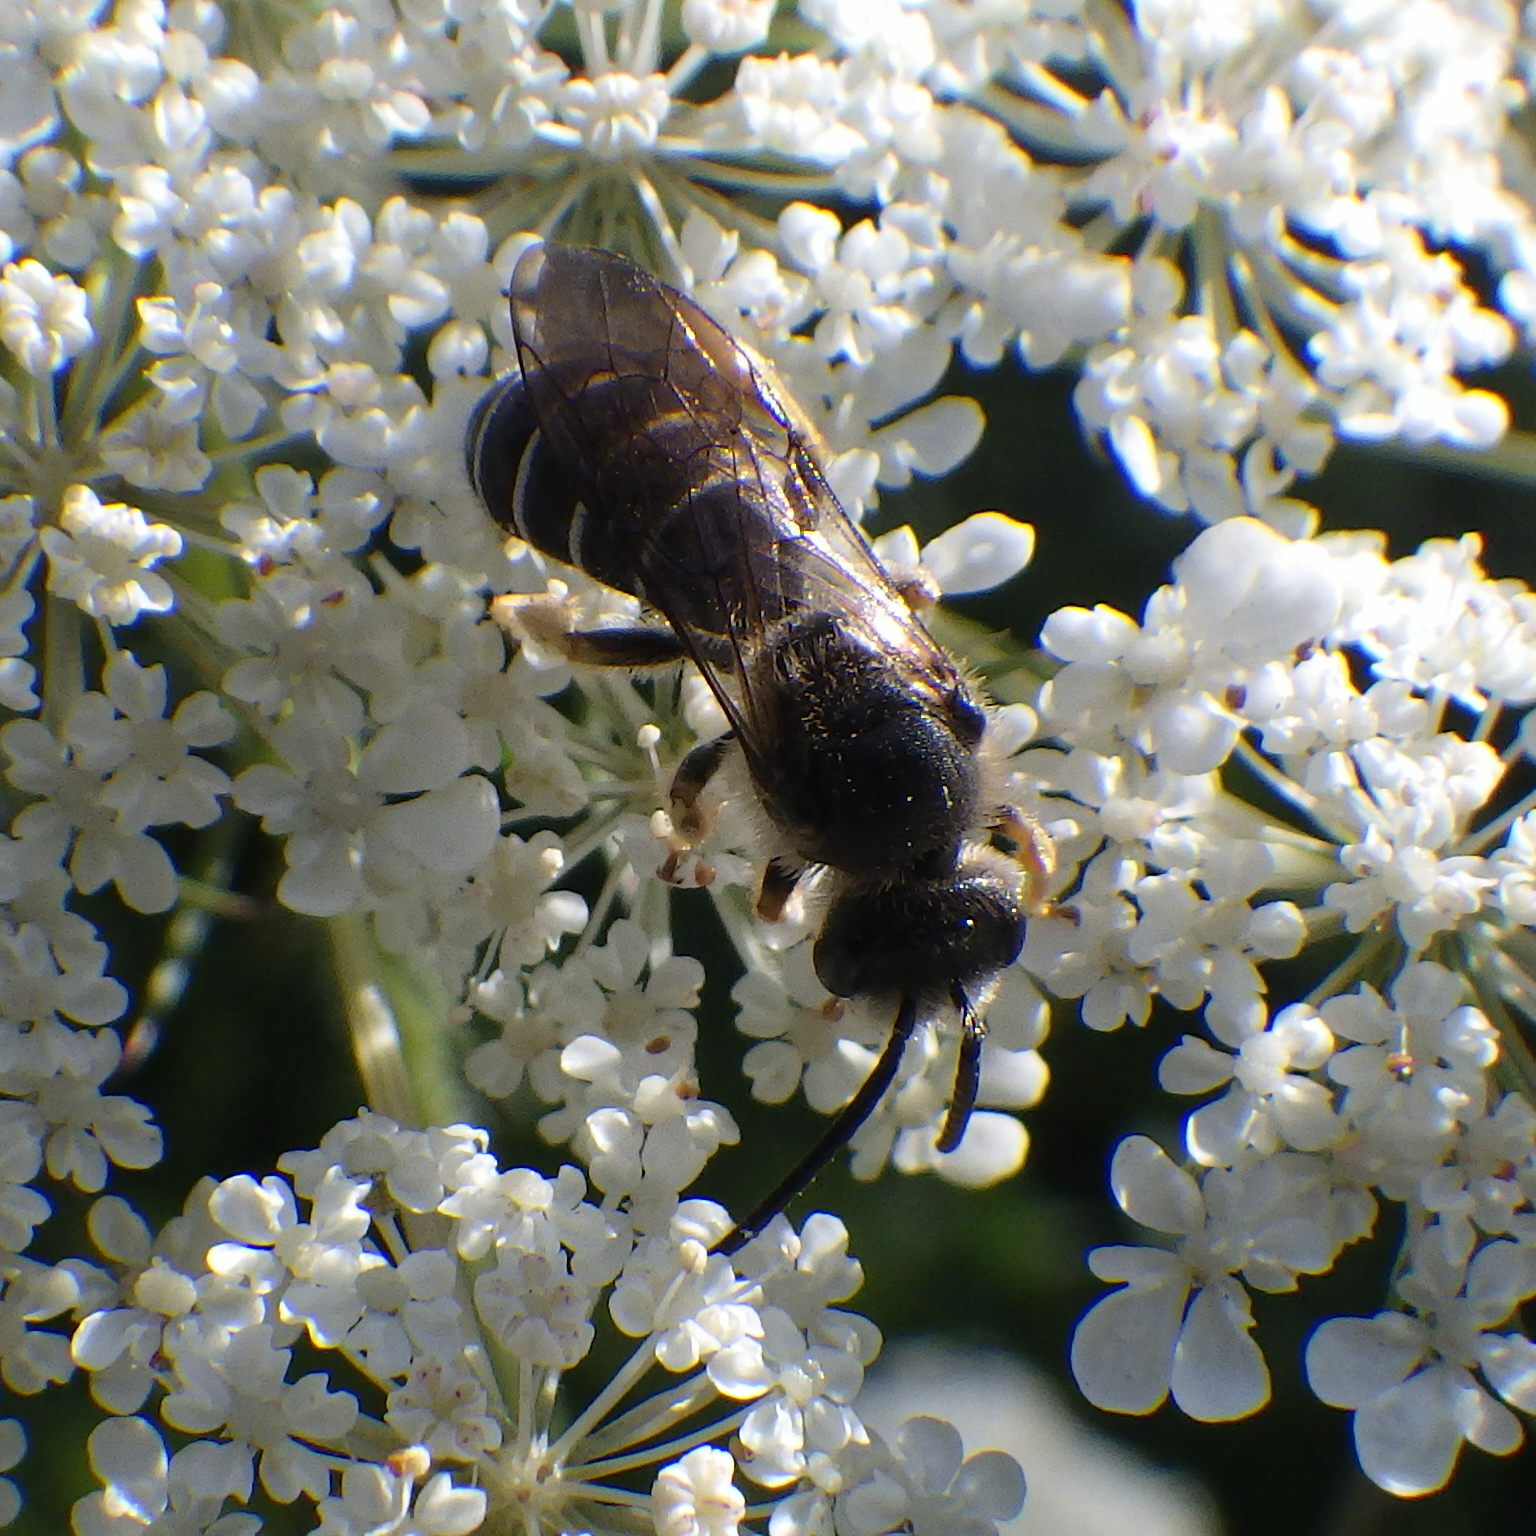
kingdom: Animalia
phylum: Arthropoda
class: Insecta
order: Hymenoptera
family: Halictidae
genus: Halictus
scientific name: Halictus rubicundus
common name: Orange-legged furrow bee
